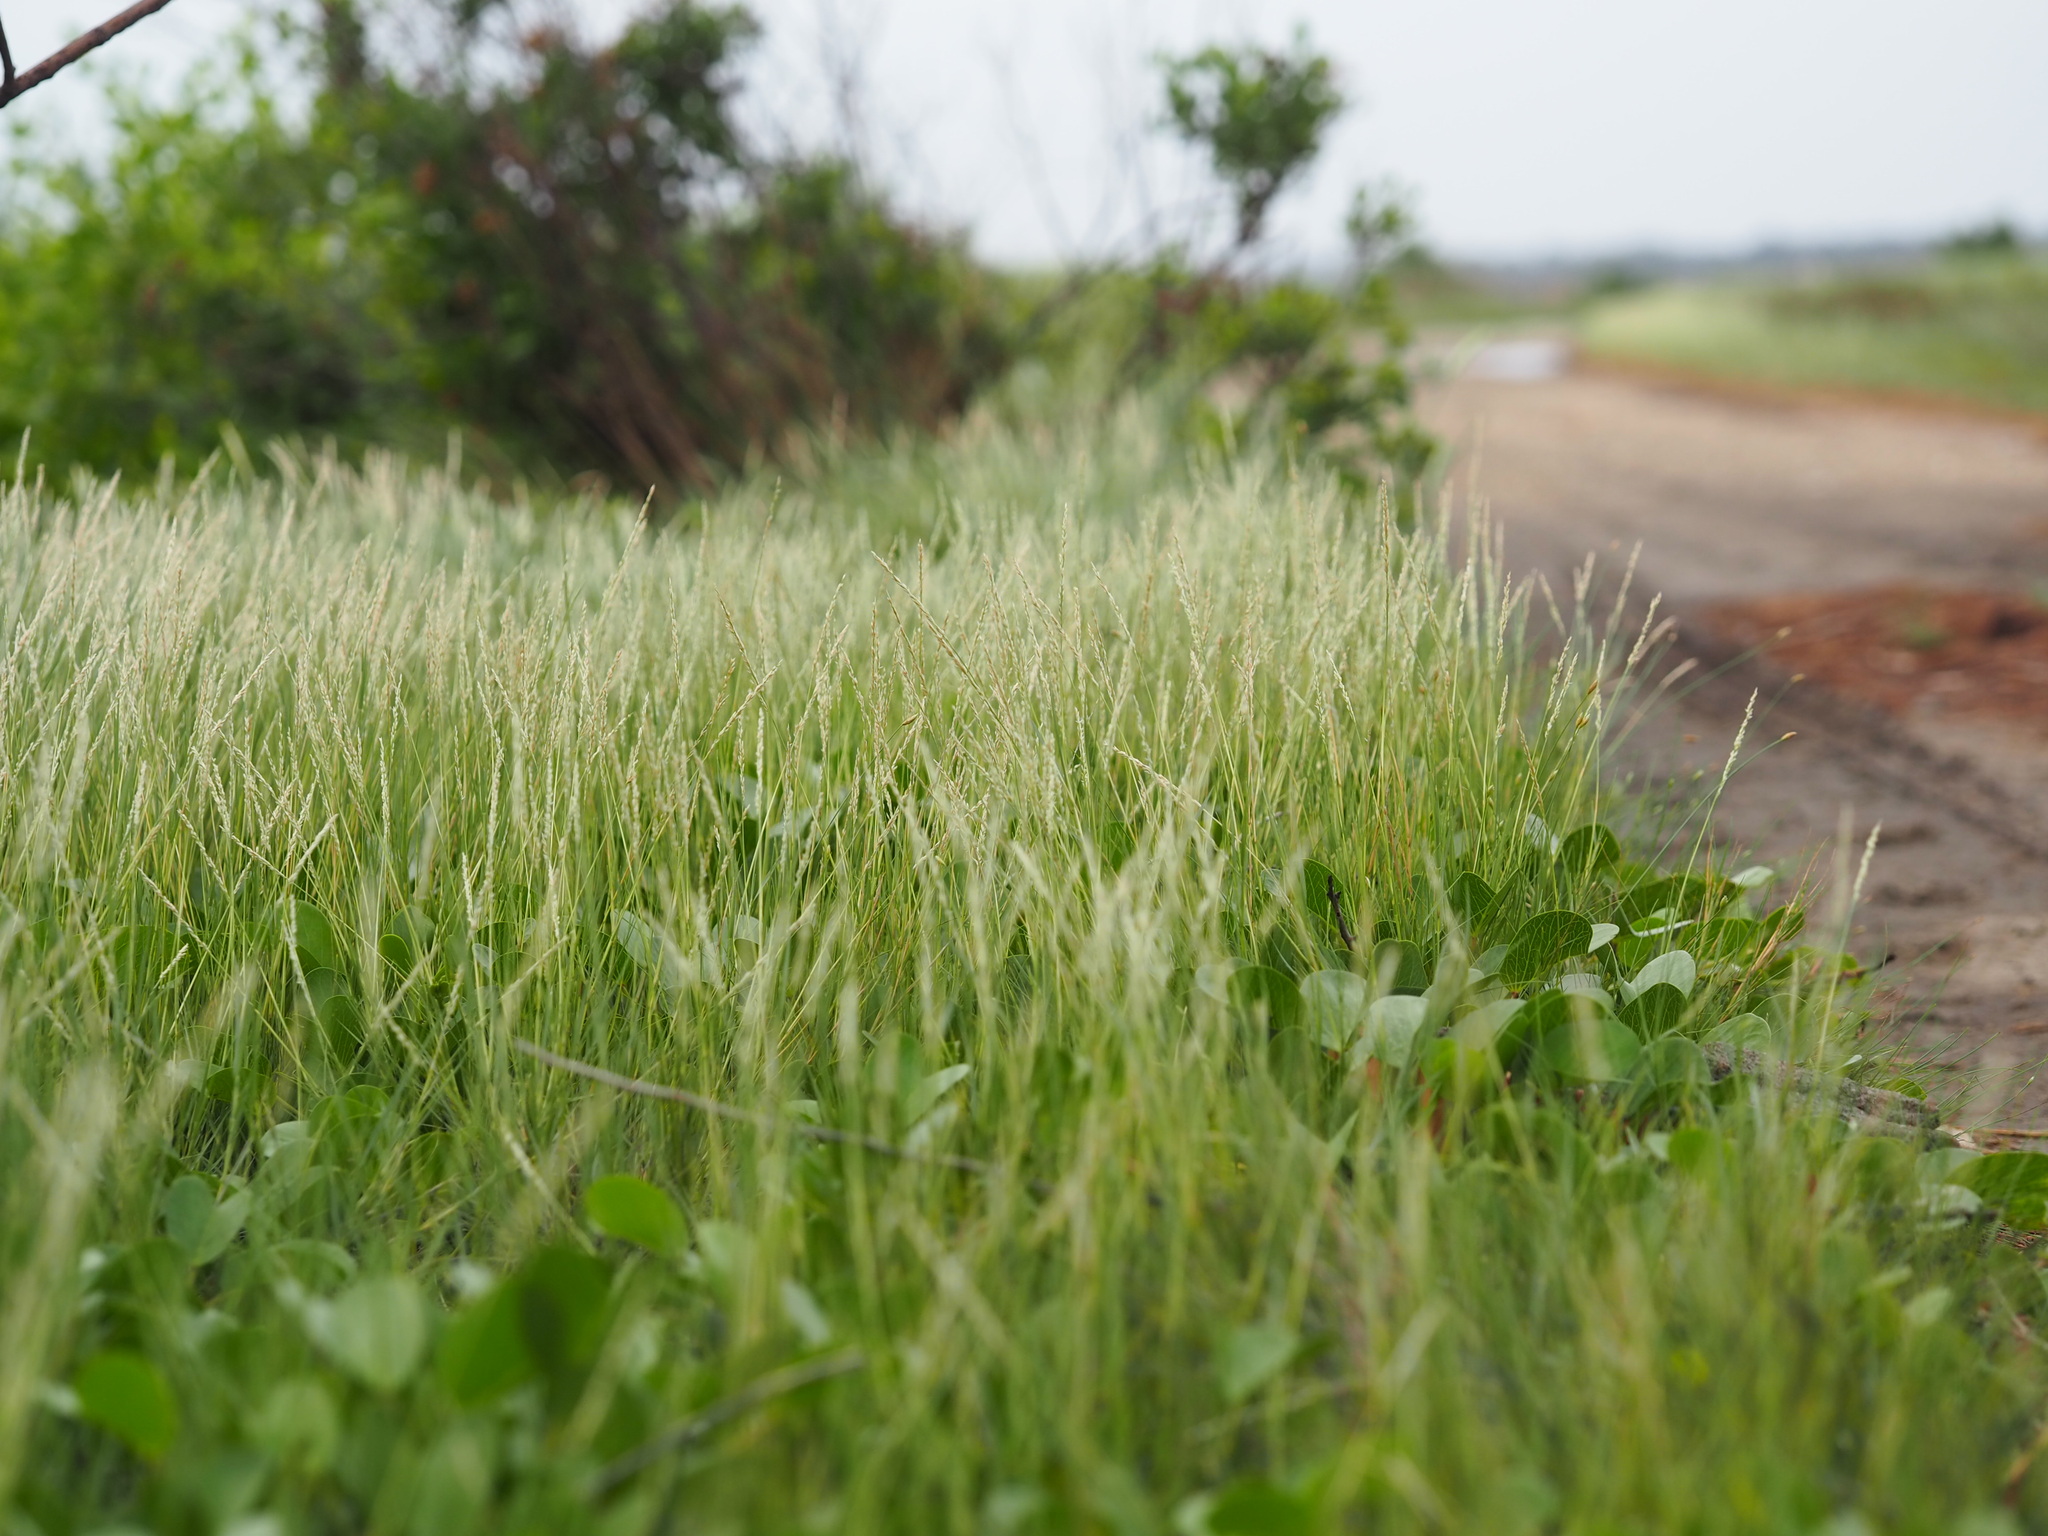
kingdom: Plantae
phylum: Tracheophyta
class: Liliopsida
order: Poales
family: Poaceae
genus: Sporobolus
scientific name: Sporobolus virginicus
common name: Beach dropseed
